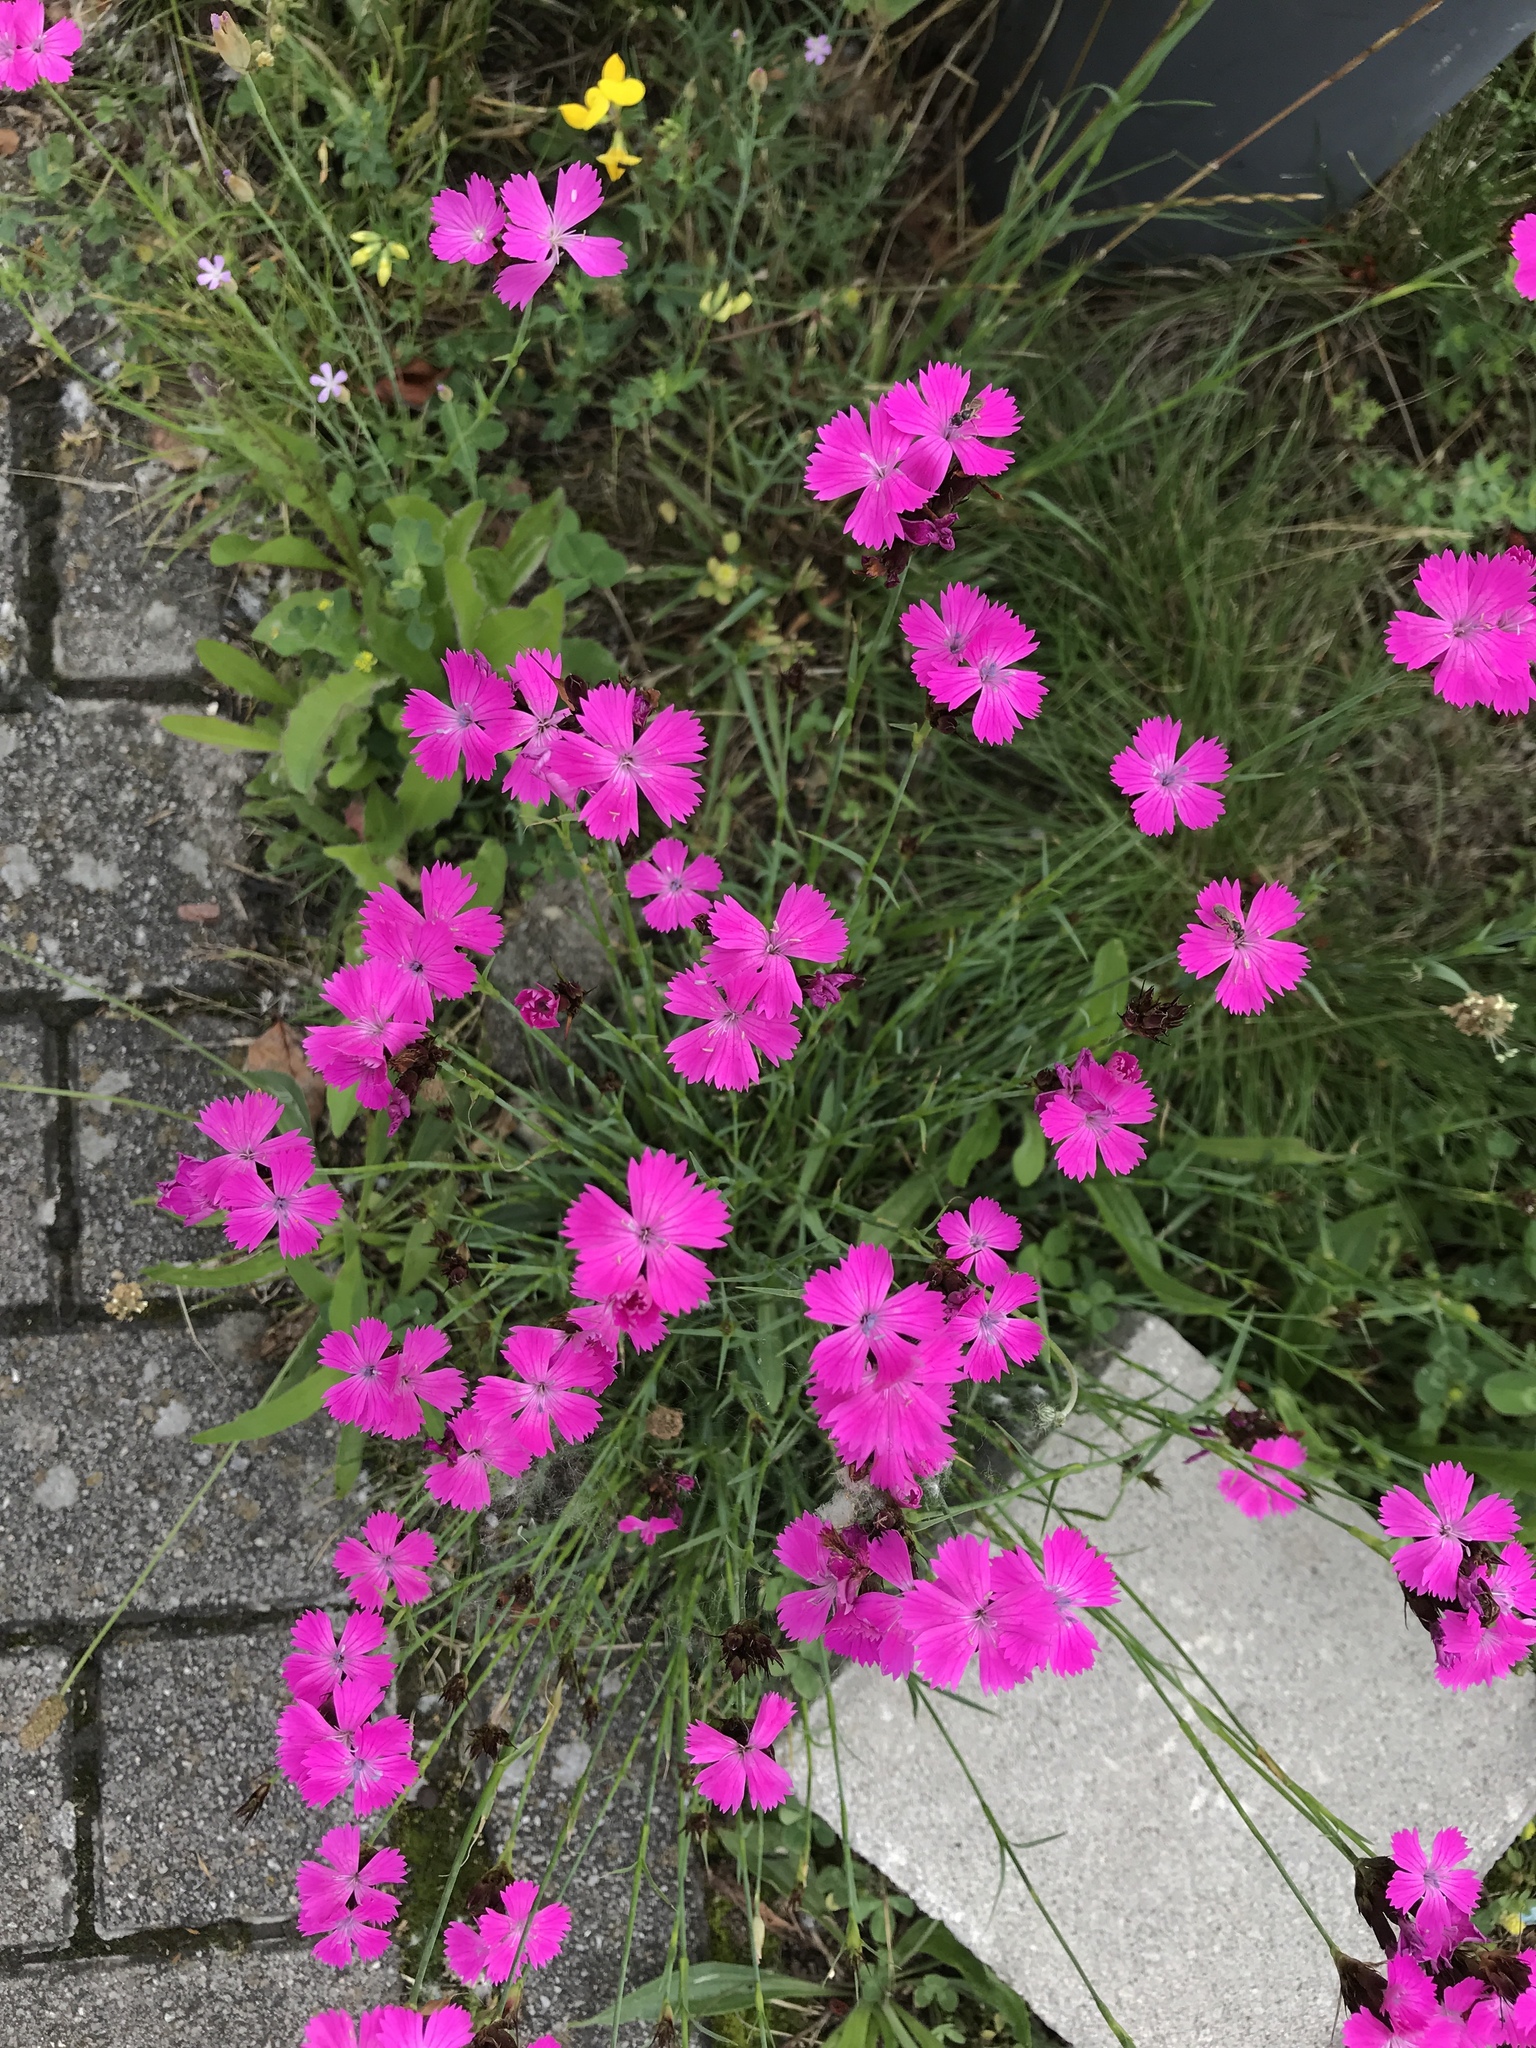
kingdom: Plantae
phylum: Tracheophyta
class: Magnoliopsida
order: Caryophyllales
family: Caryophyllaceae
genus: Dianthus
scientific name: Dianthus carthusianorum
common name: Carthusian pink
